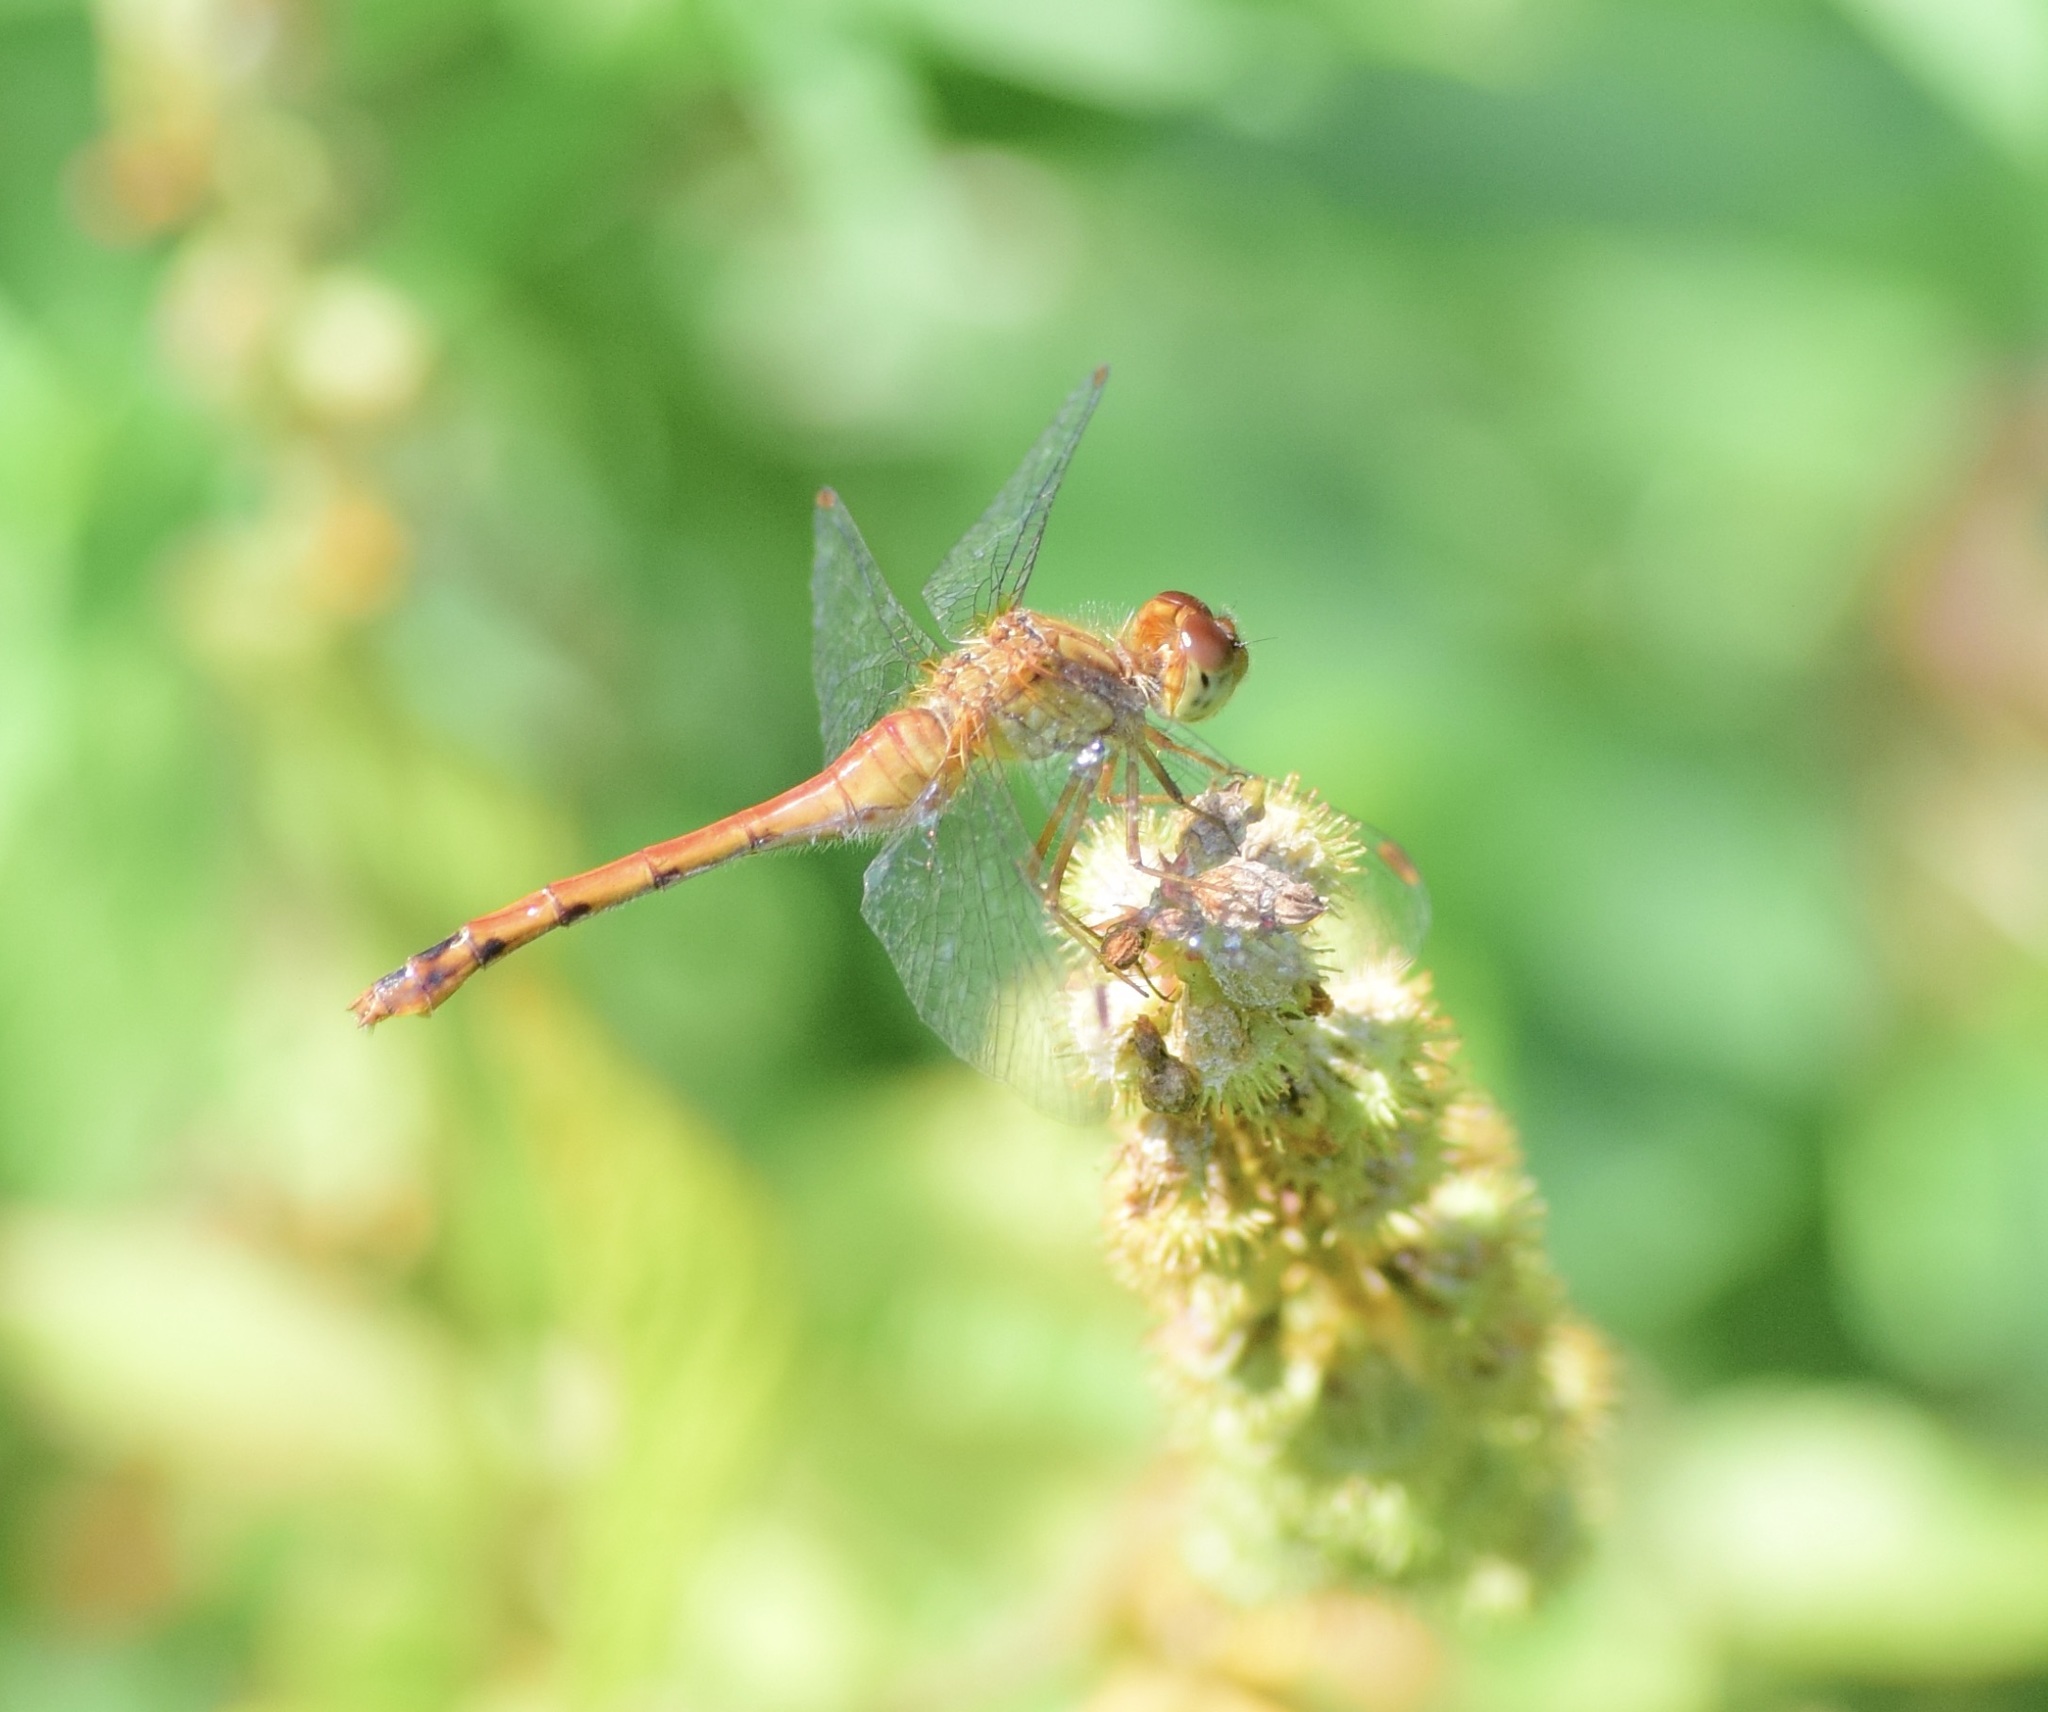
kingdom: Animalia
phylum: Arthropoda
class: Insecta
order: Odonata
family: Libellulidae
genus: Sympetrum
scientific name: Sympetrum vicinum
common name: Autumn meadowhawk
